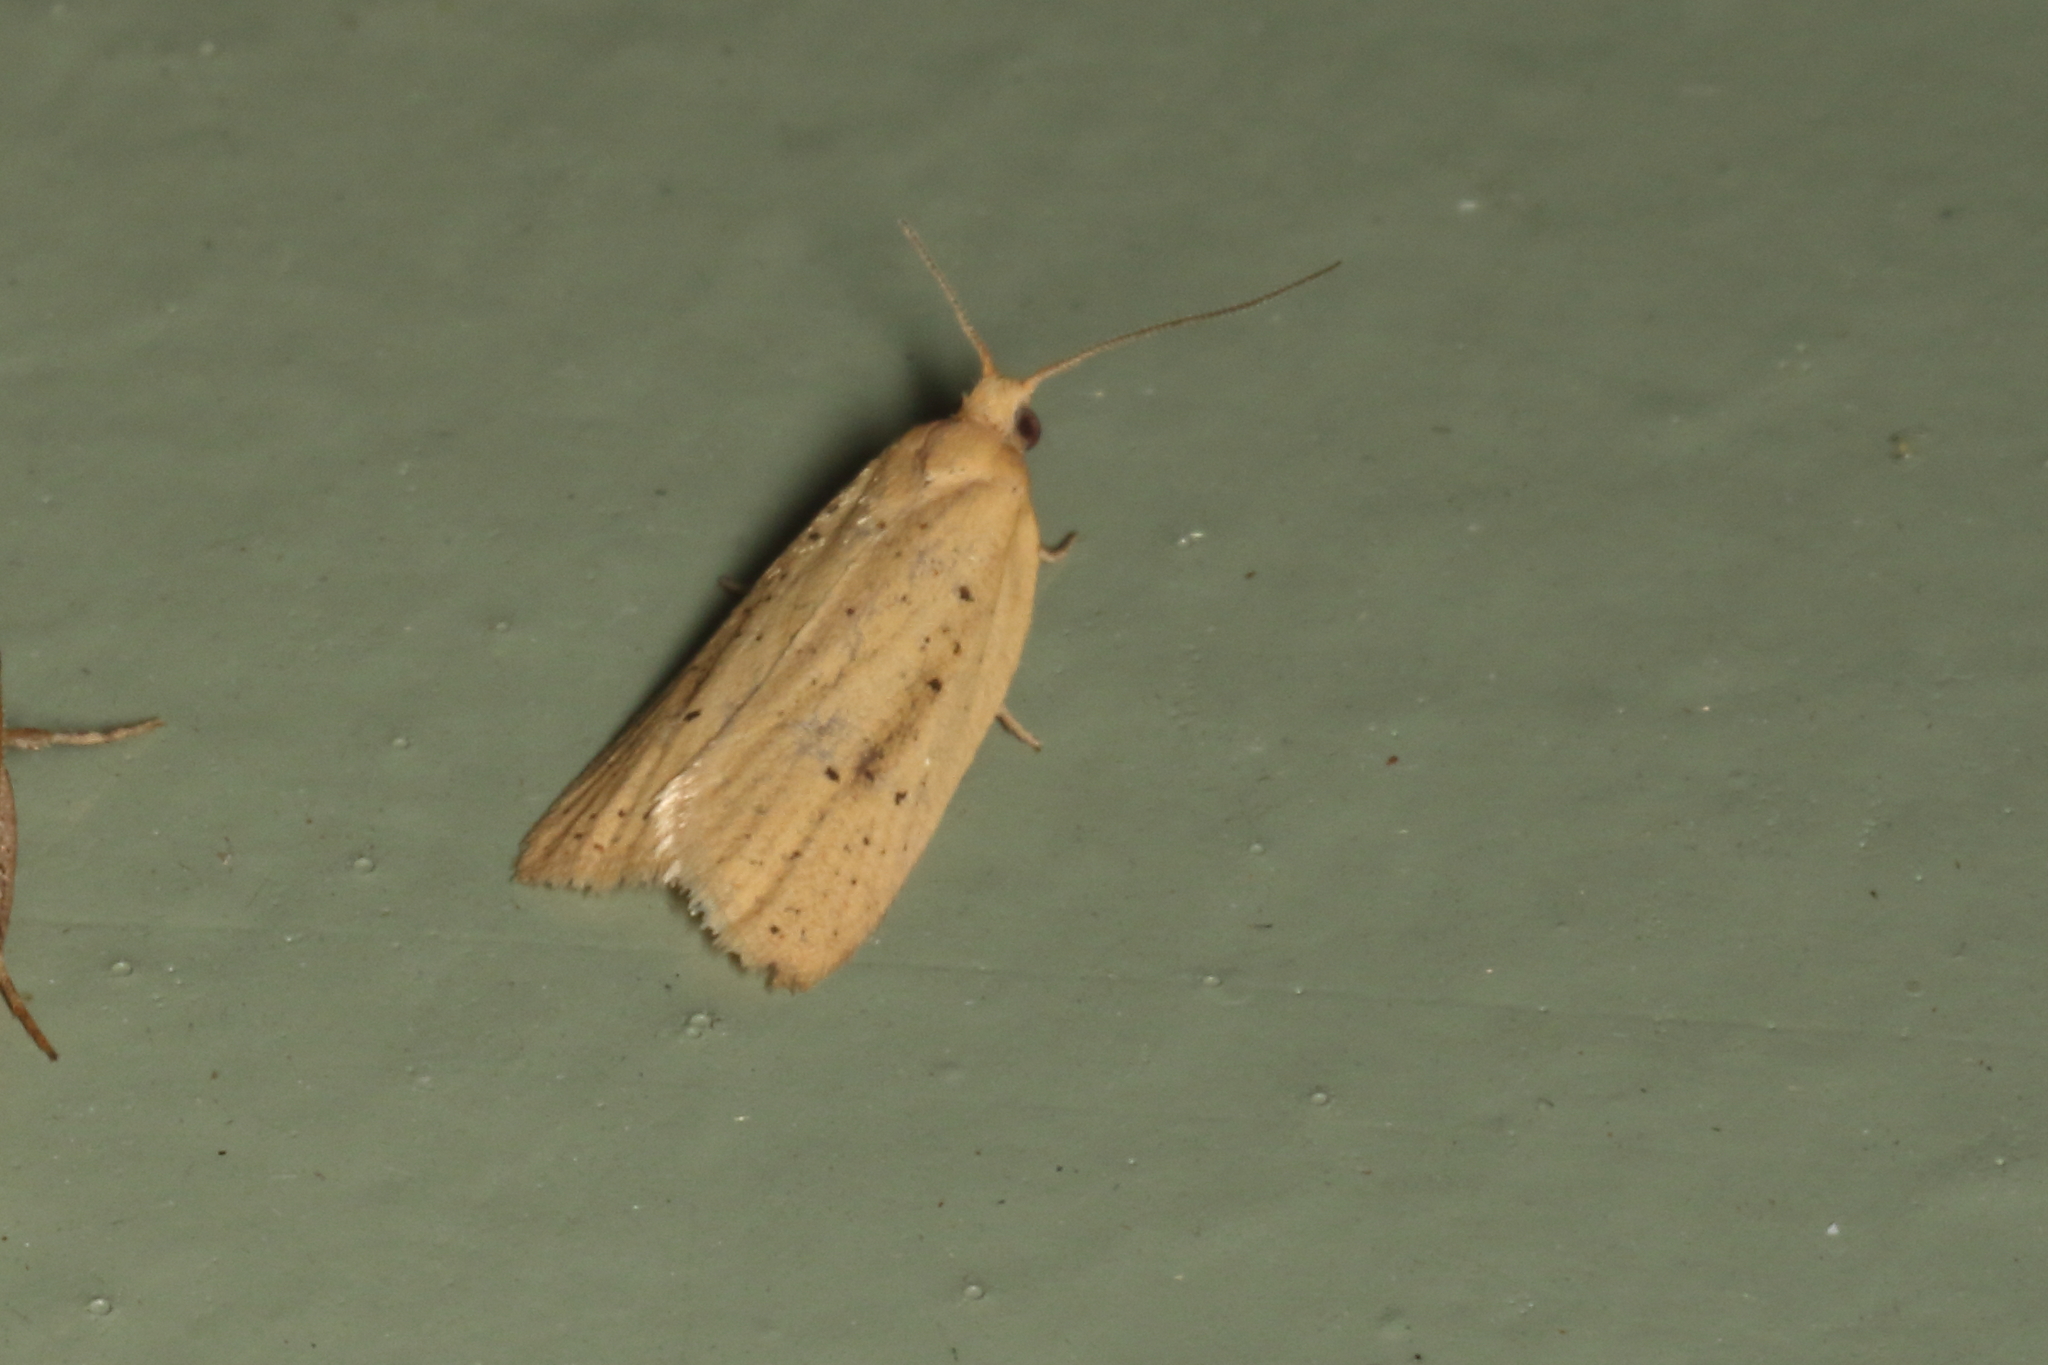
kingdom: Animalia
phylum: Arthropoda
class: Insecta
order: Lepidoptera
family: Tortricidae
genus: Clepsis
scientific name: Clepsis
